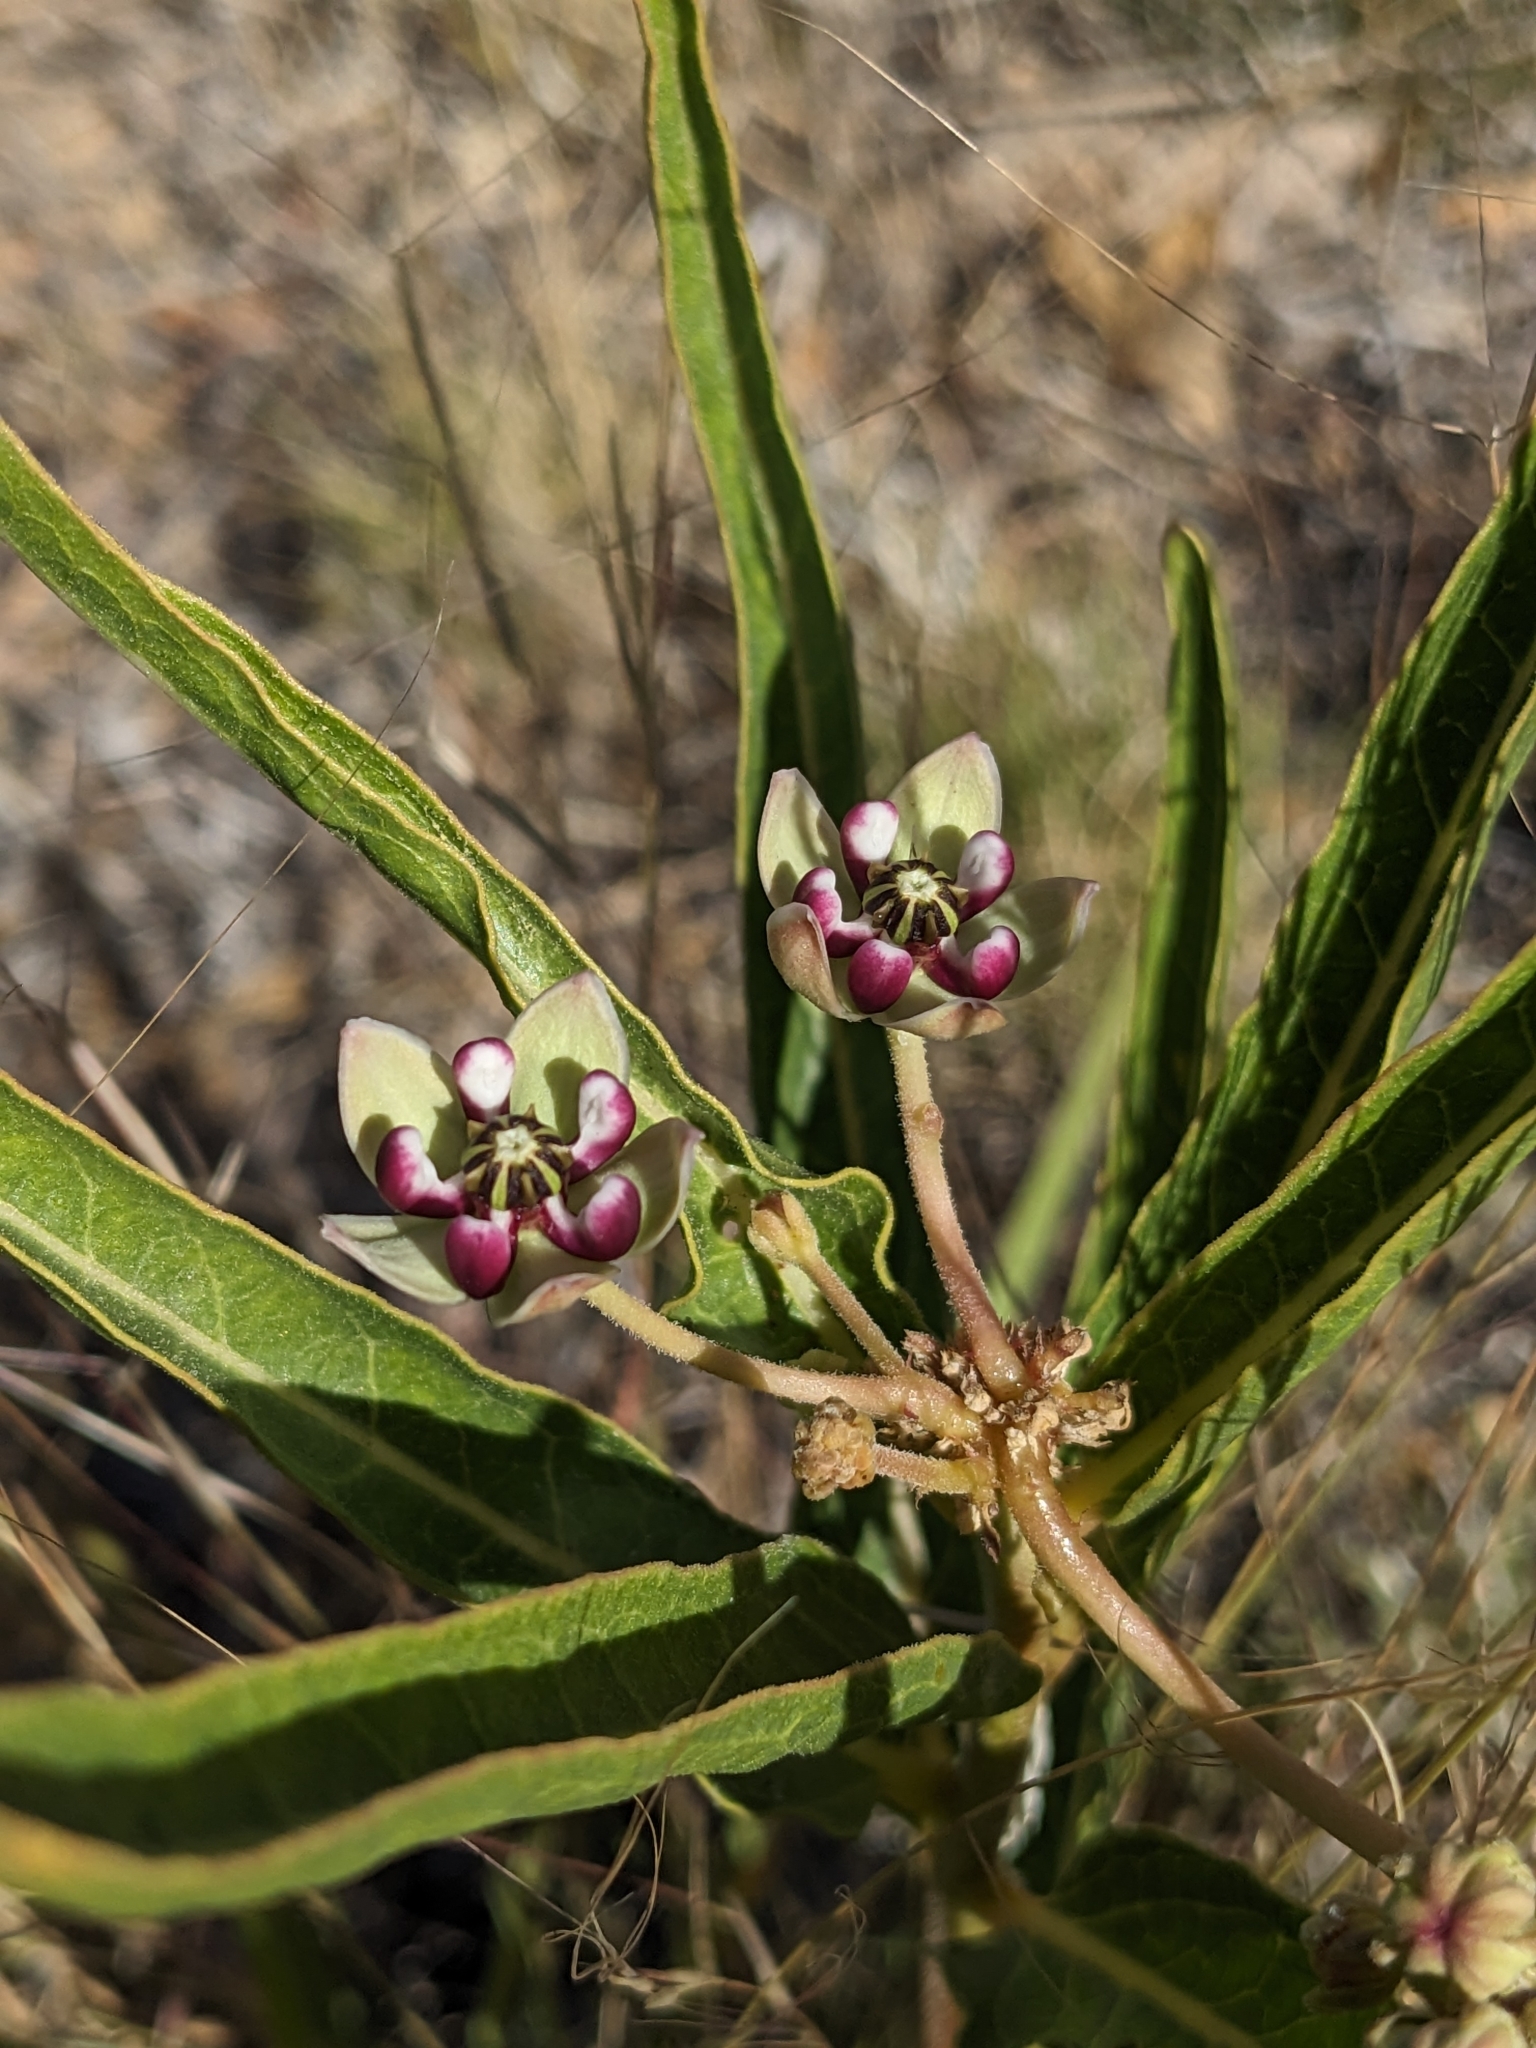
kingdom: Plantae
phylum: Tracheophyta
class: Magnoliopsida
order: Gentianales
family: Apocynaceae
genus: Asclepias
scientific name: Asclepias asperula
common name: Antelope horns
